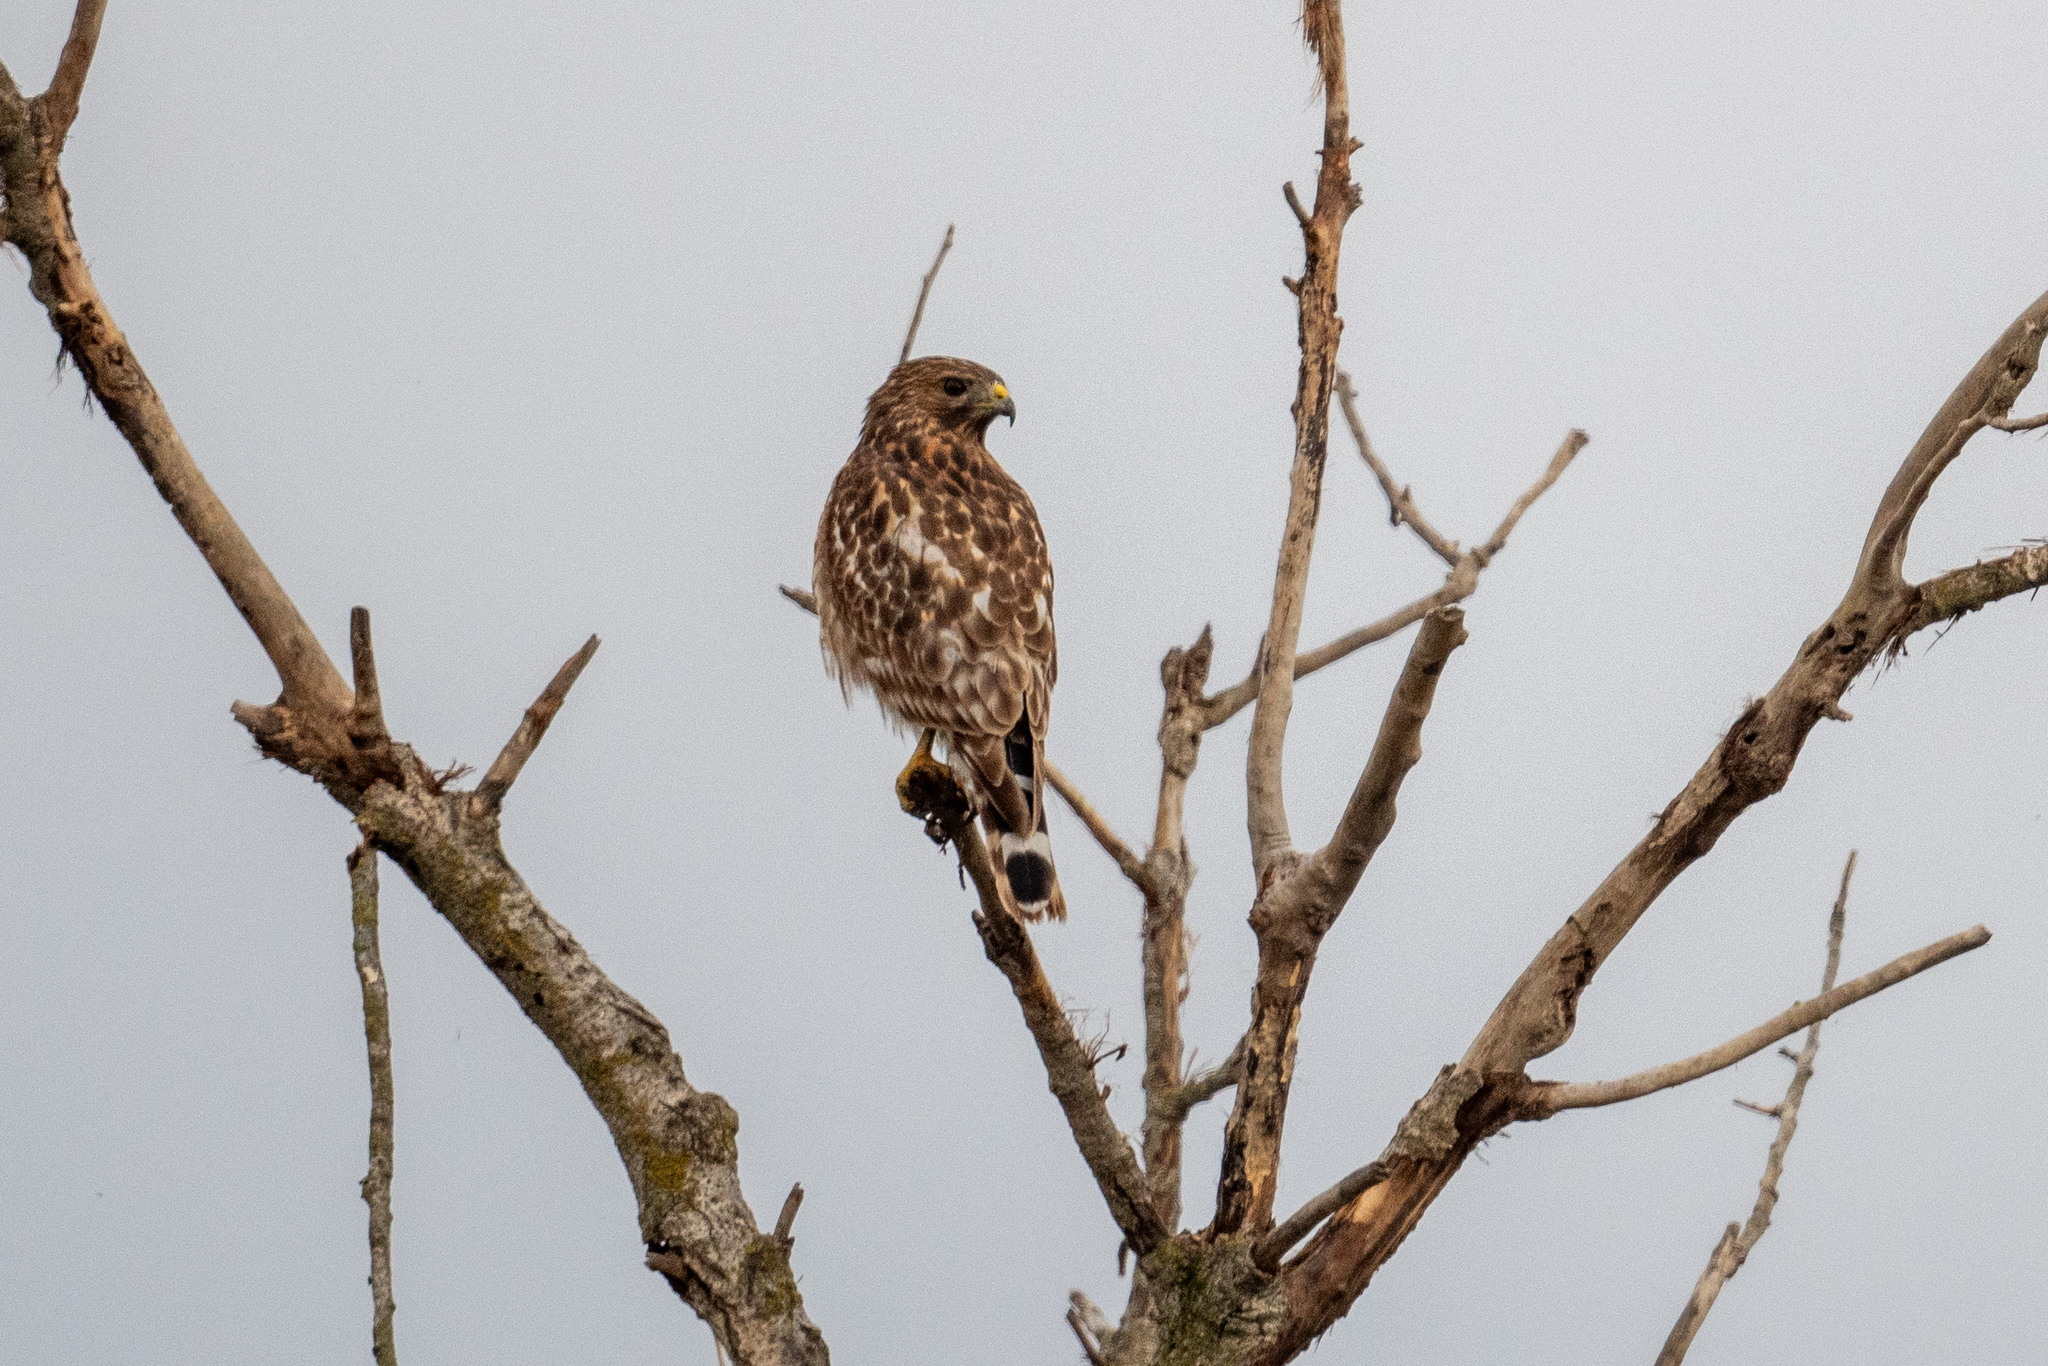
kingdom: Animalia
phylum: Chordata
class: Aves
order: Accipitriformes
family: Accipitridae
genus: Buteo
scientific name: Buteo lineatus
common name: Red-shouldered hawk
